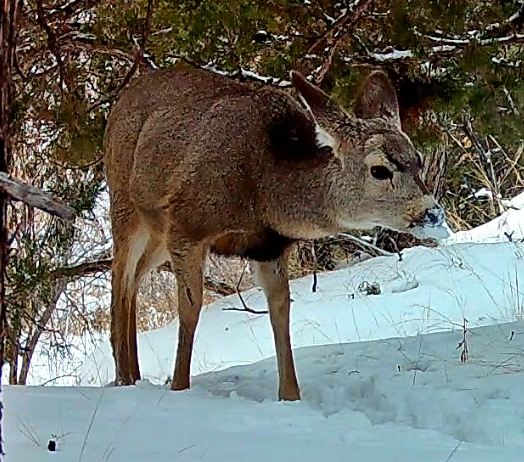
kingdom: Animalia
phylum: Chordata
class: Mammalia
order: Artiodactyla
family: Cervidae
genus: Odocoileus
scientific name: Odocoileus hemionus
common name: Mule deer
